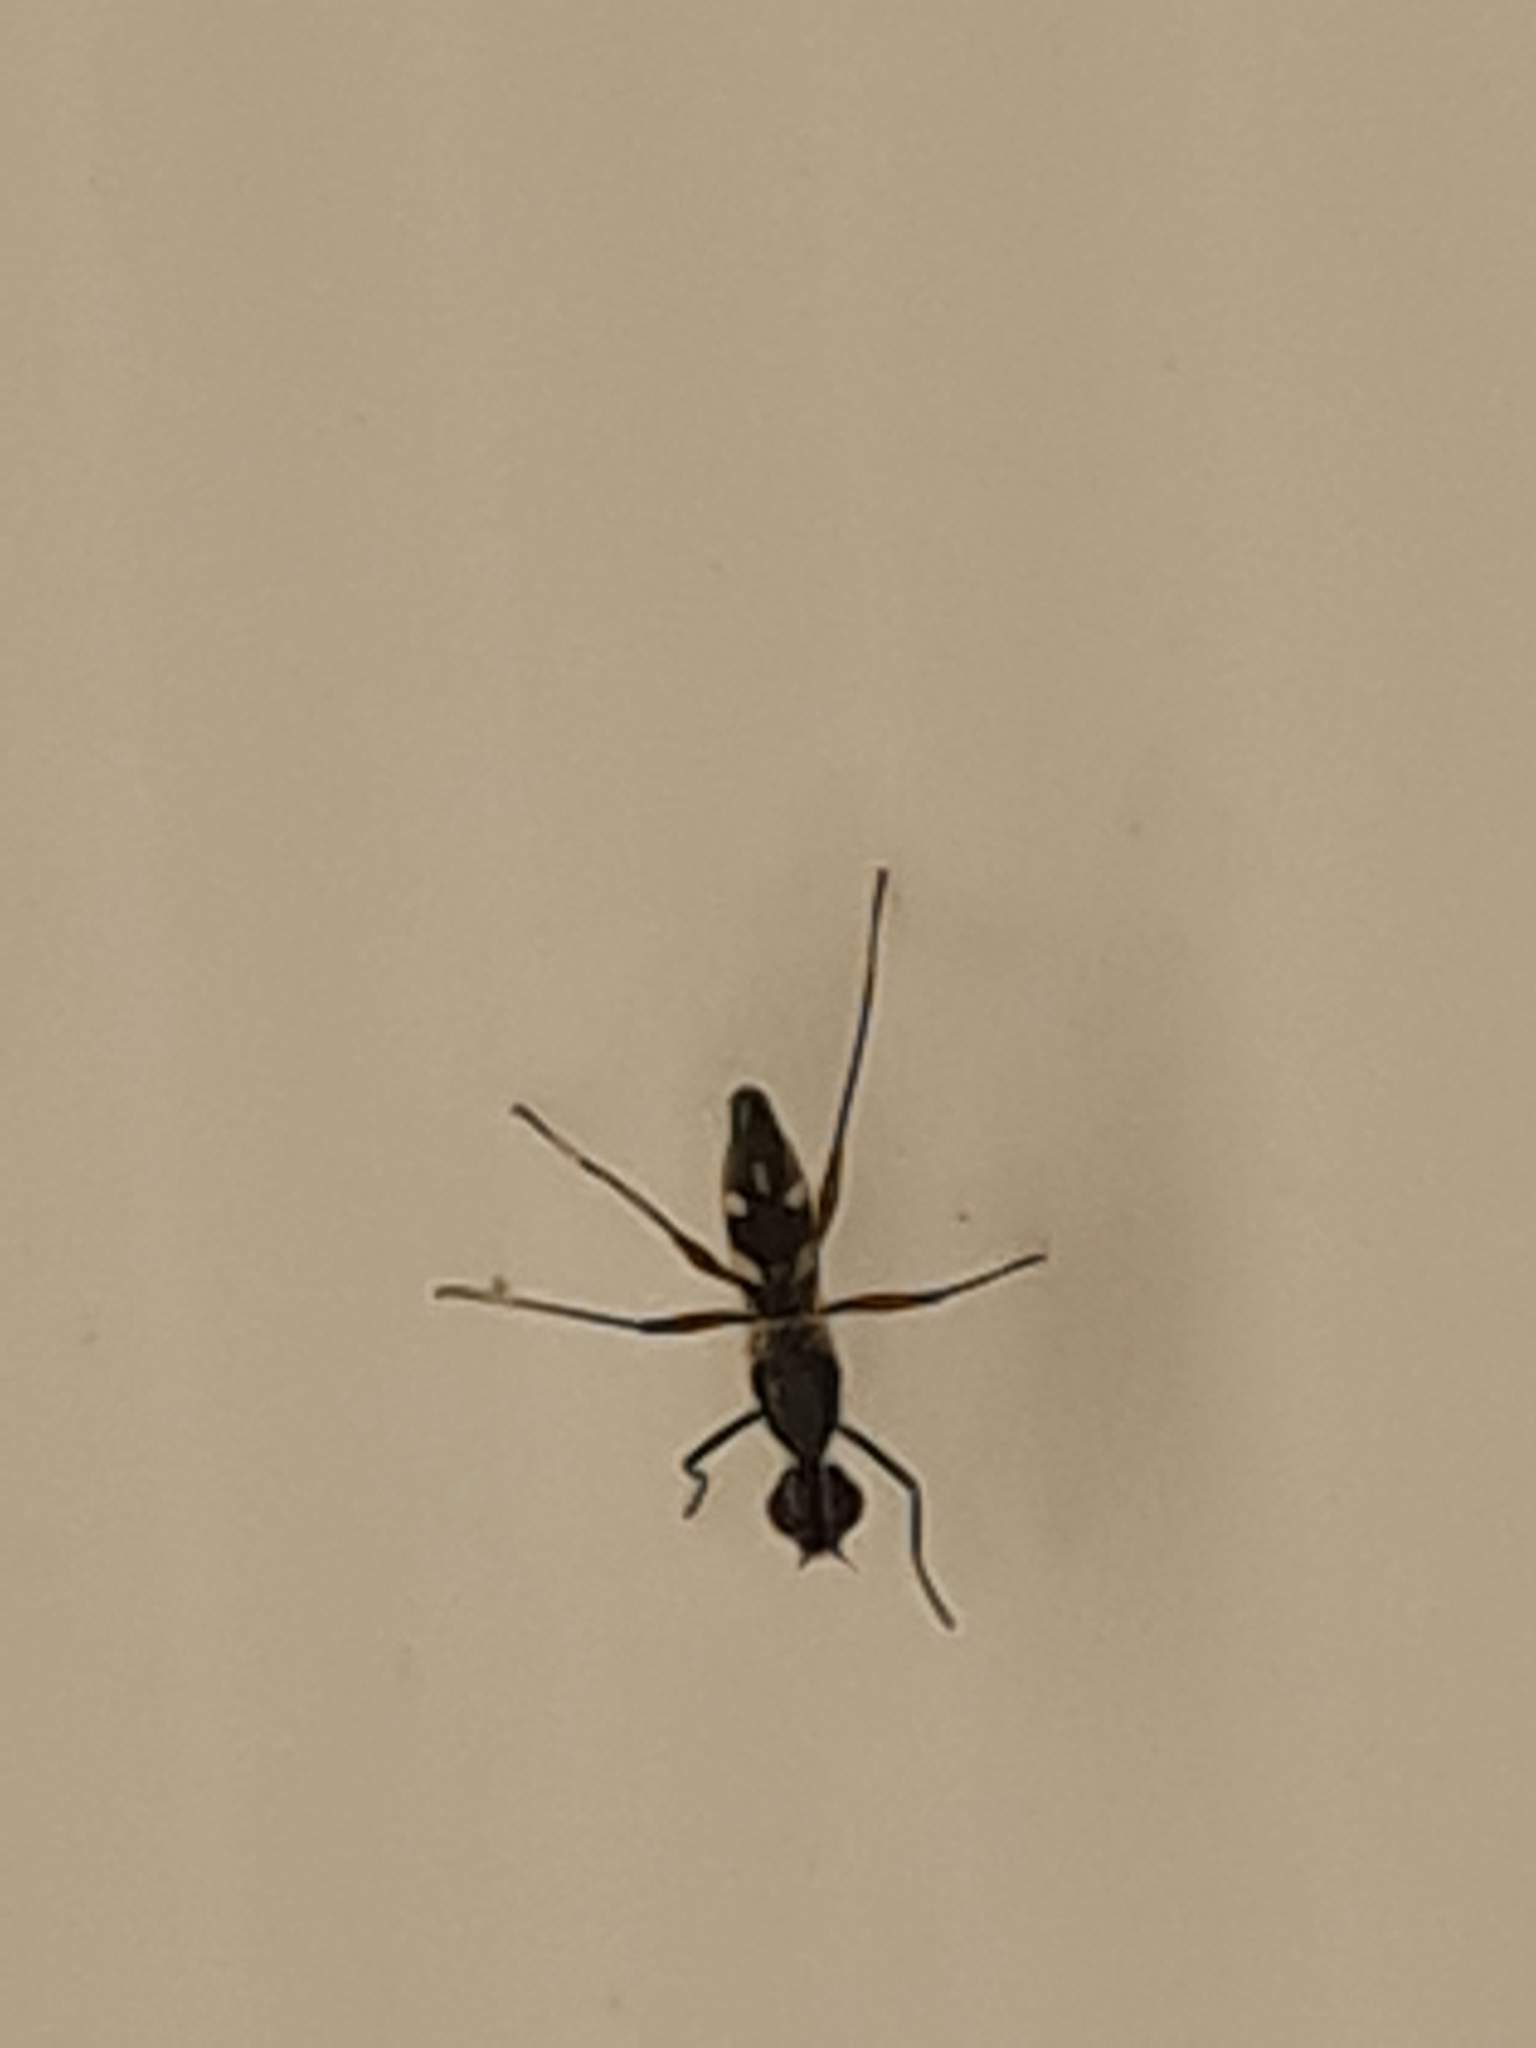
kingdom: Animalia
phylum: Arthropoda
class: Insecta
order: Diptera
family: Micropezidae
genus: Cardiacephala
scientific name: Cardiacephala guttata
